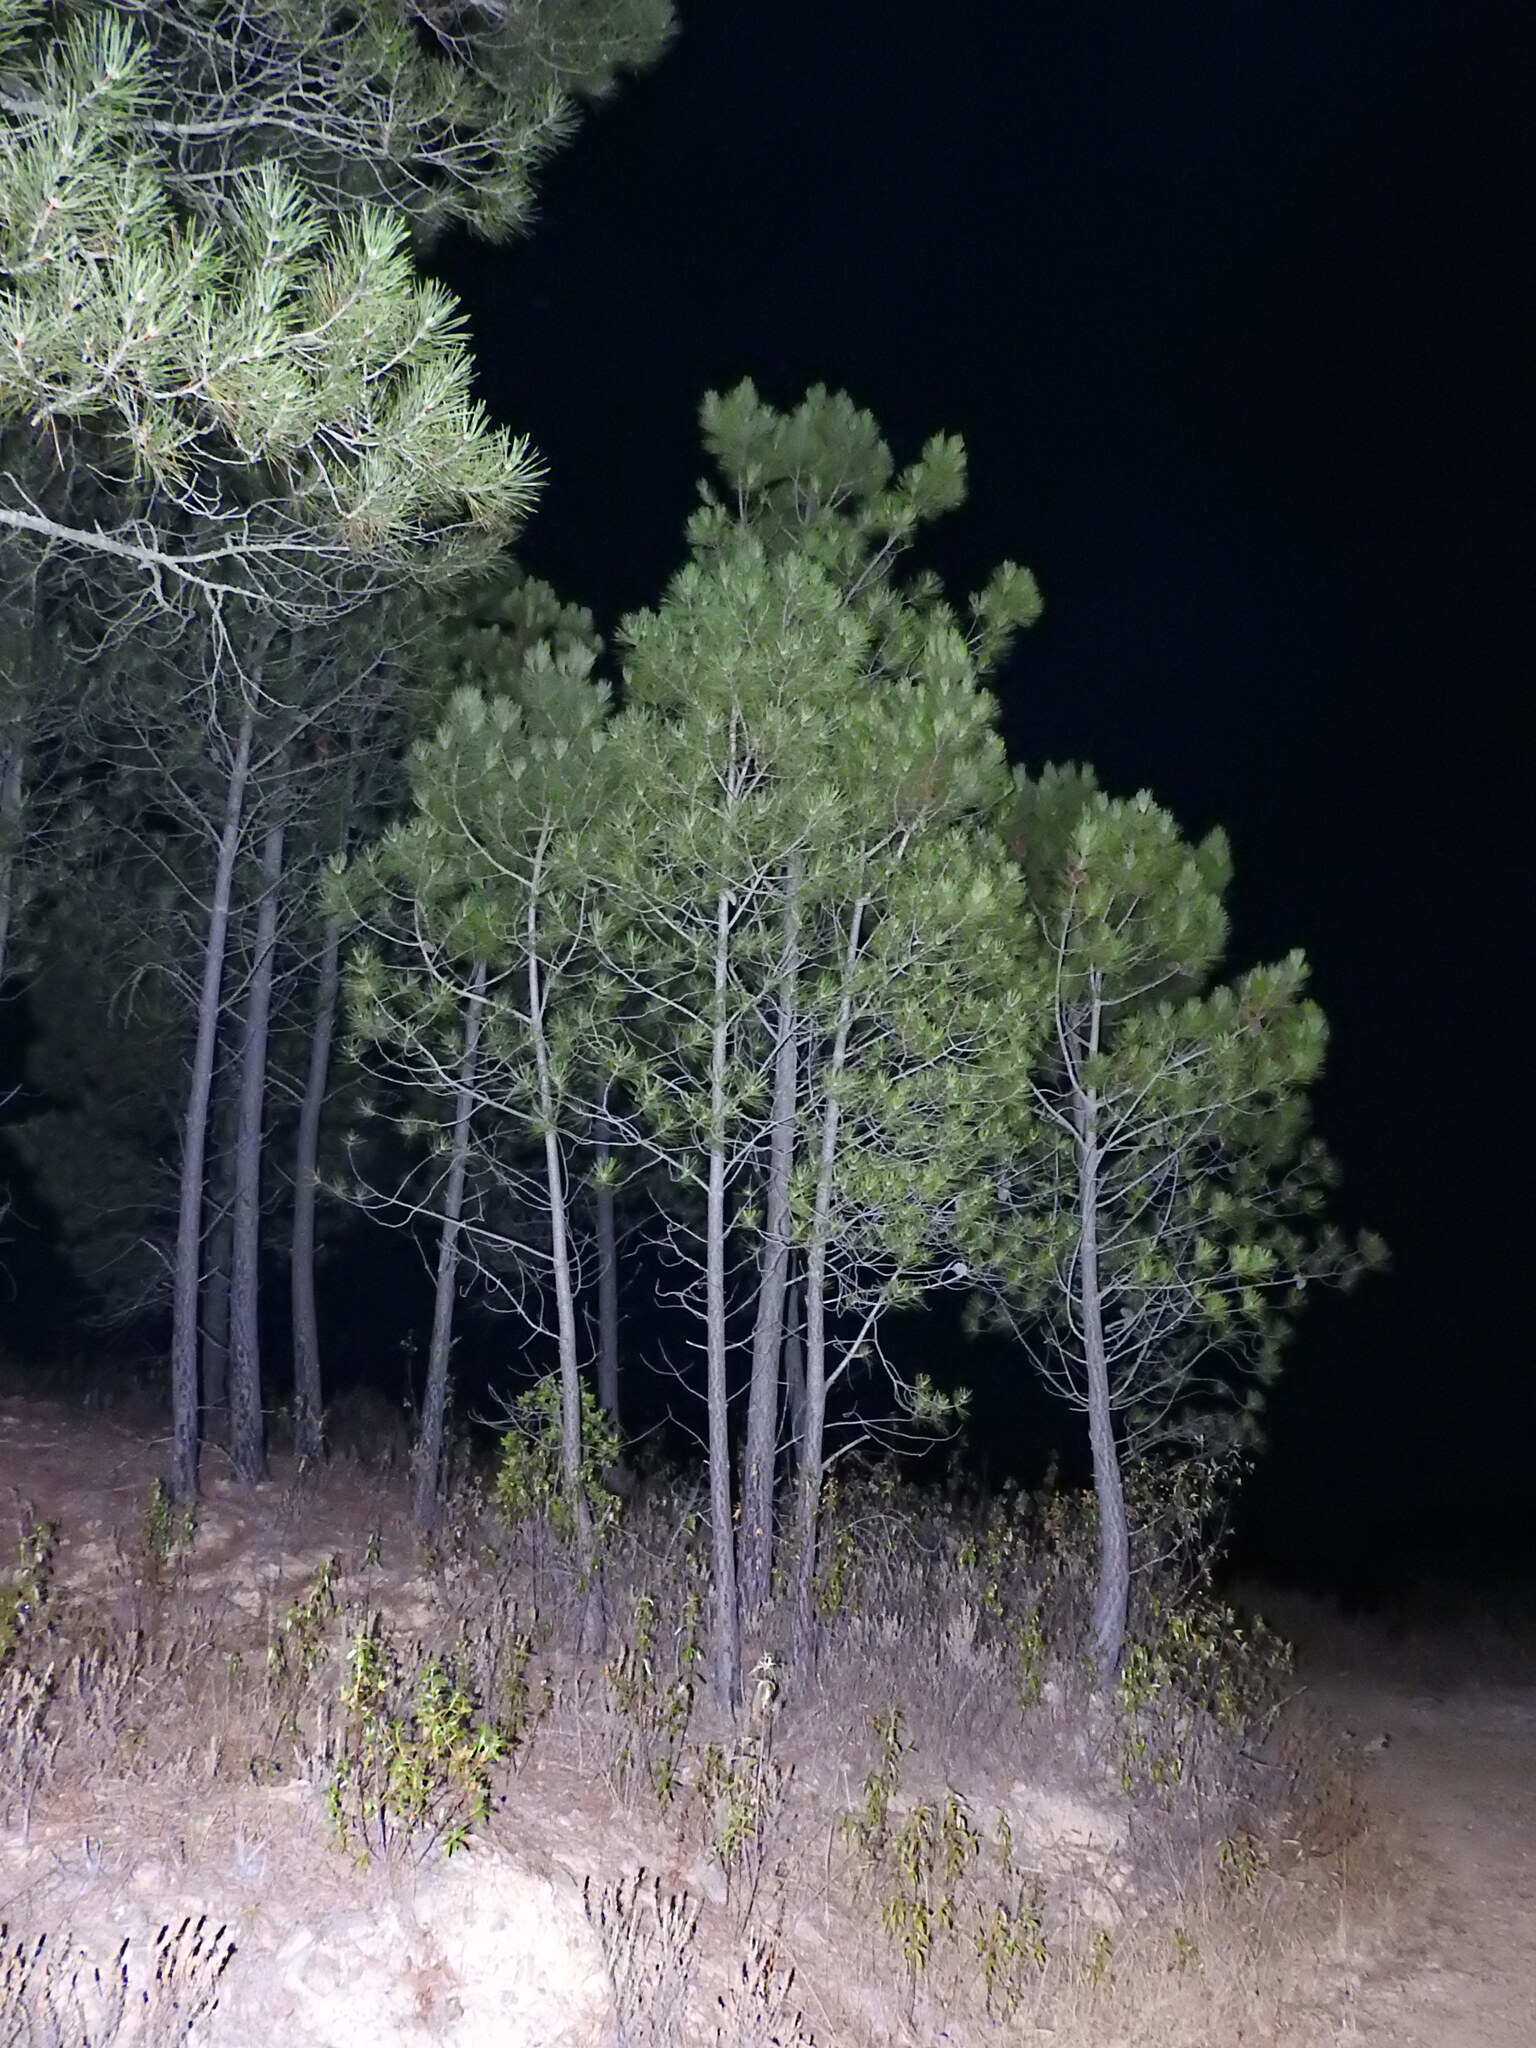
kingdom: Plantae
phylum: Tracheophyta
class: Pinopsida
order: Pinales
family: Pinaceae
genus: Pinus
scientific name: Pinus pinaster
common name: Maritime pine
